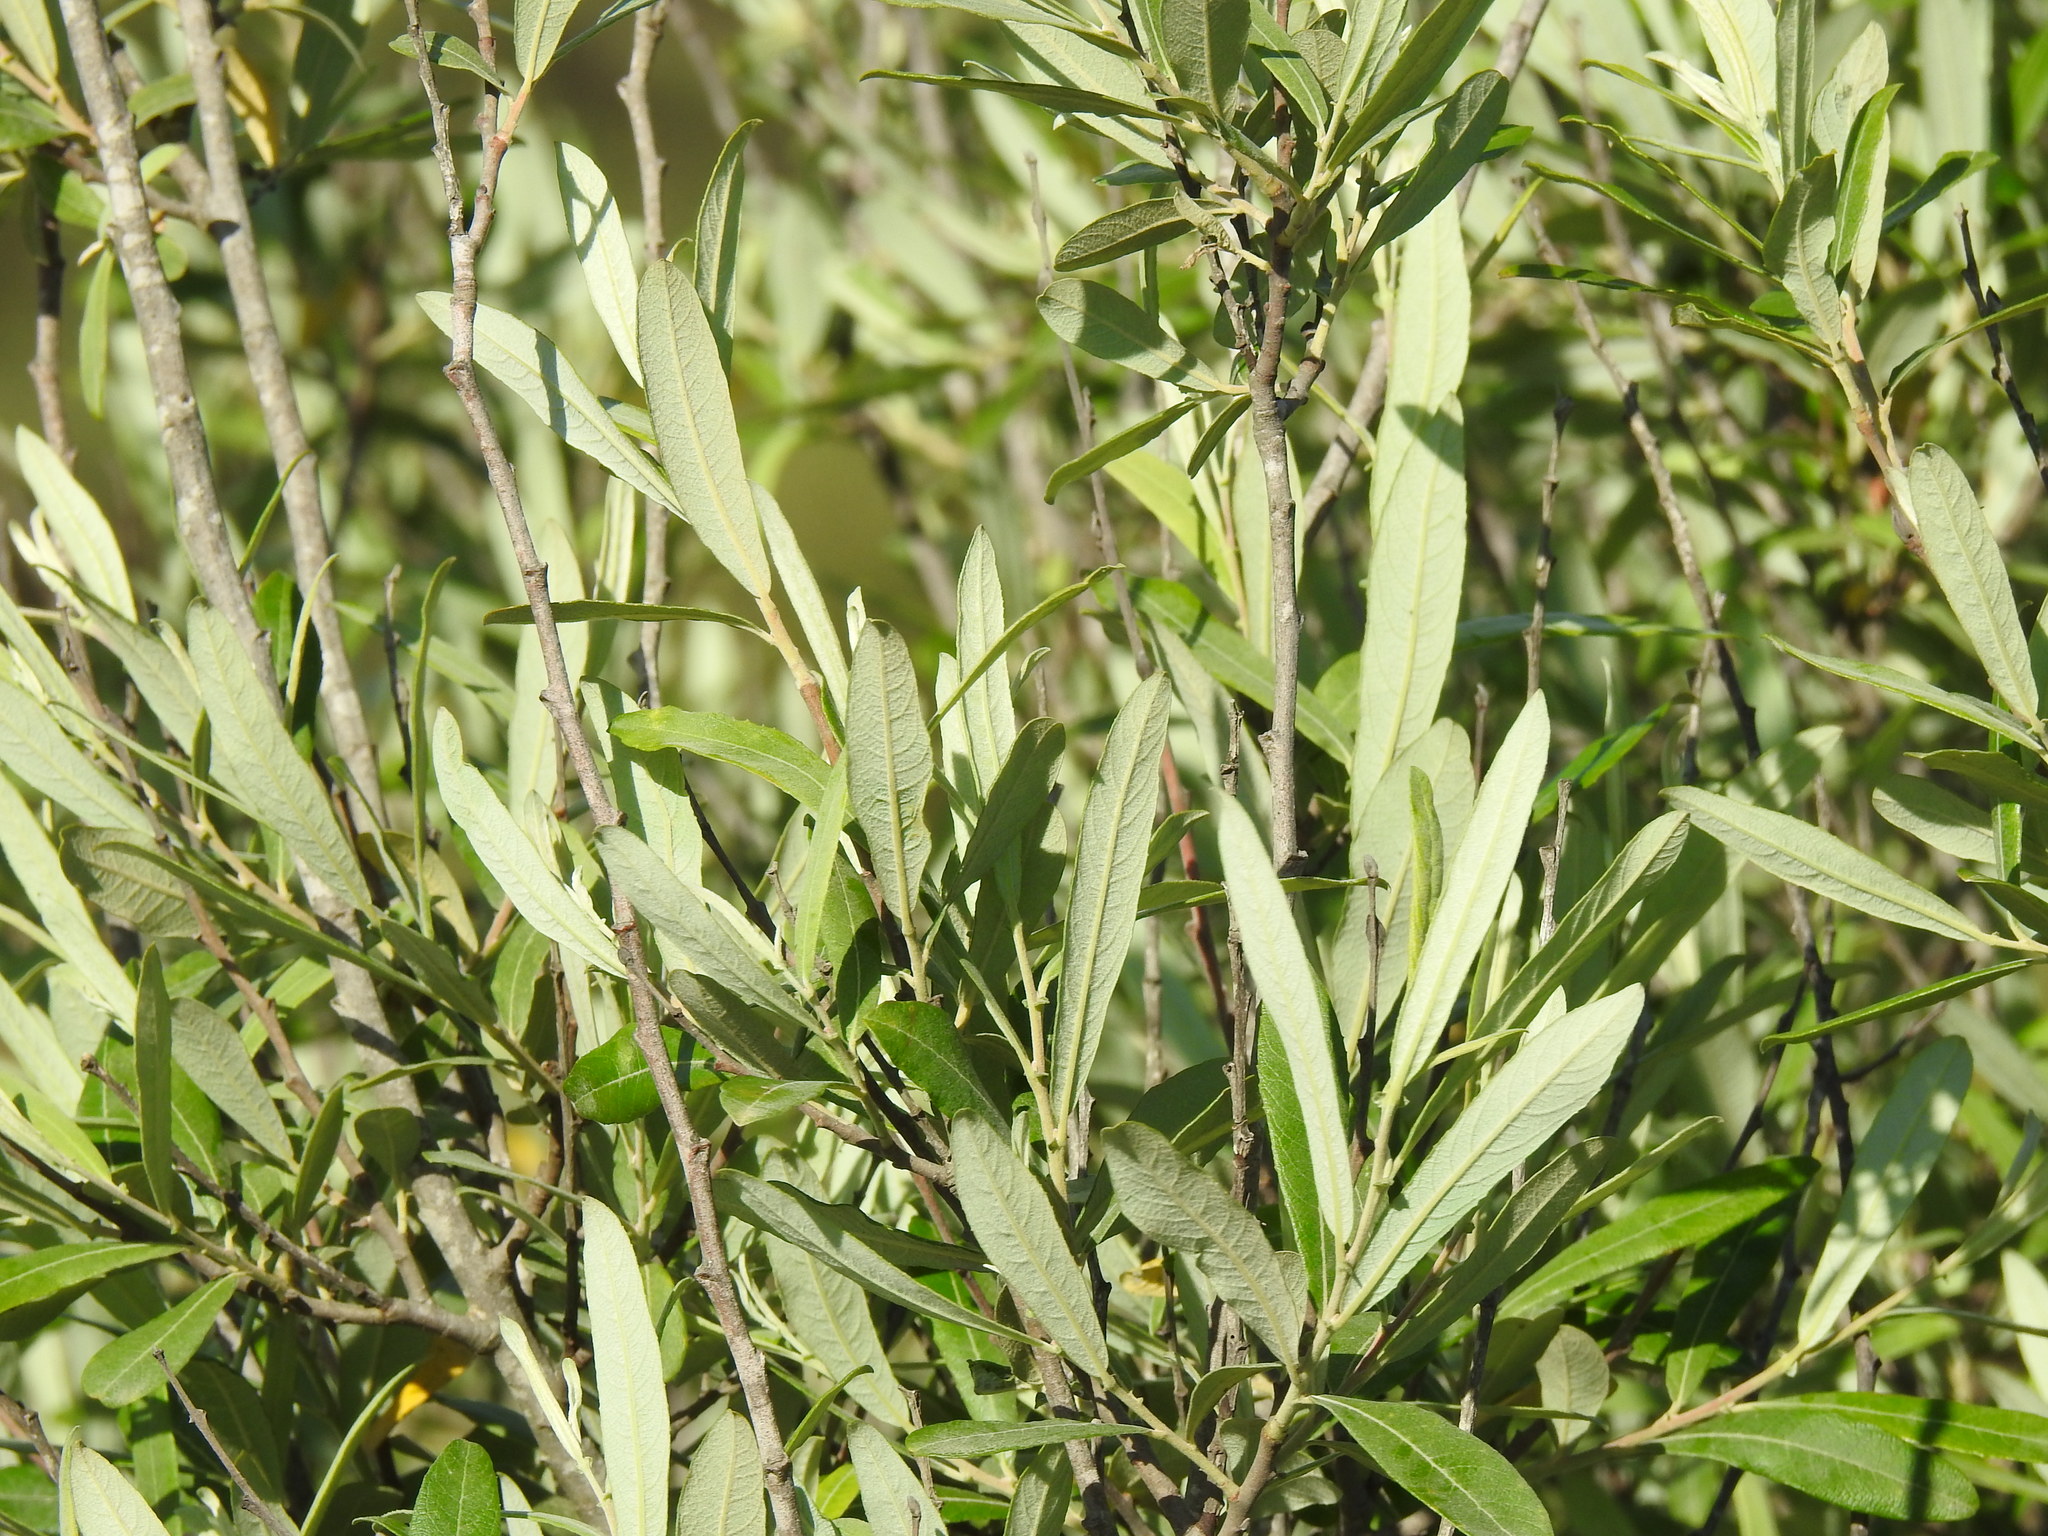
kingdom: Plantae
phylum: Tracheophyta
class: Magnoliopsida
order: Malpighiales
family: Salicaceae
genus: Salix
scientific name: Salix salviifolia
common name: Salvia-leaf willow
